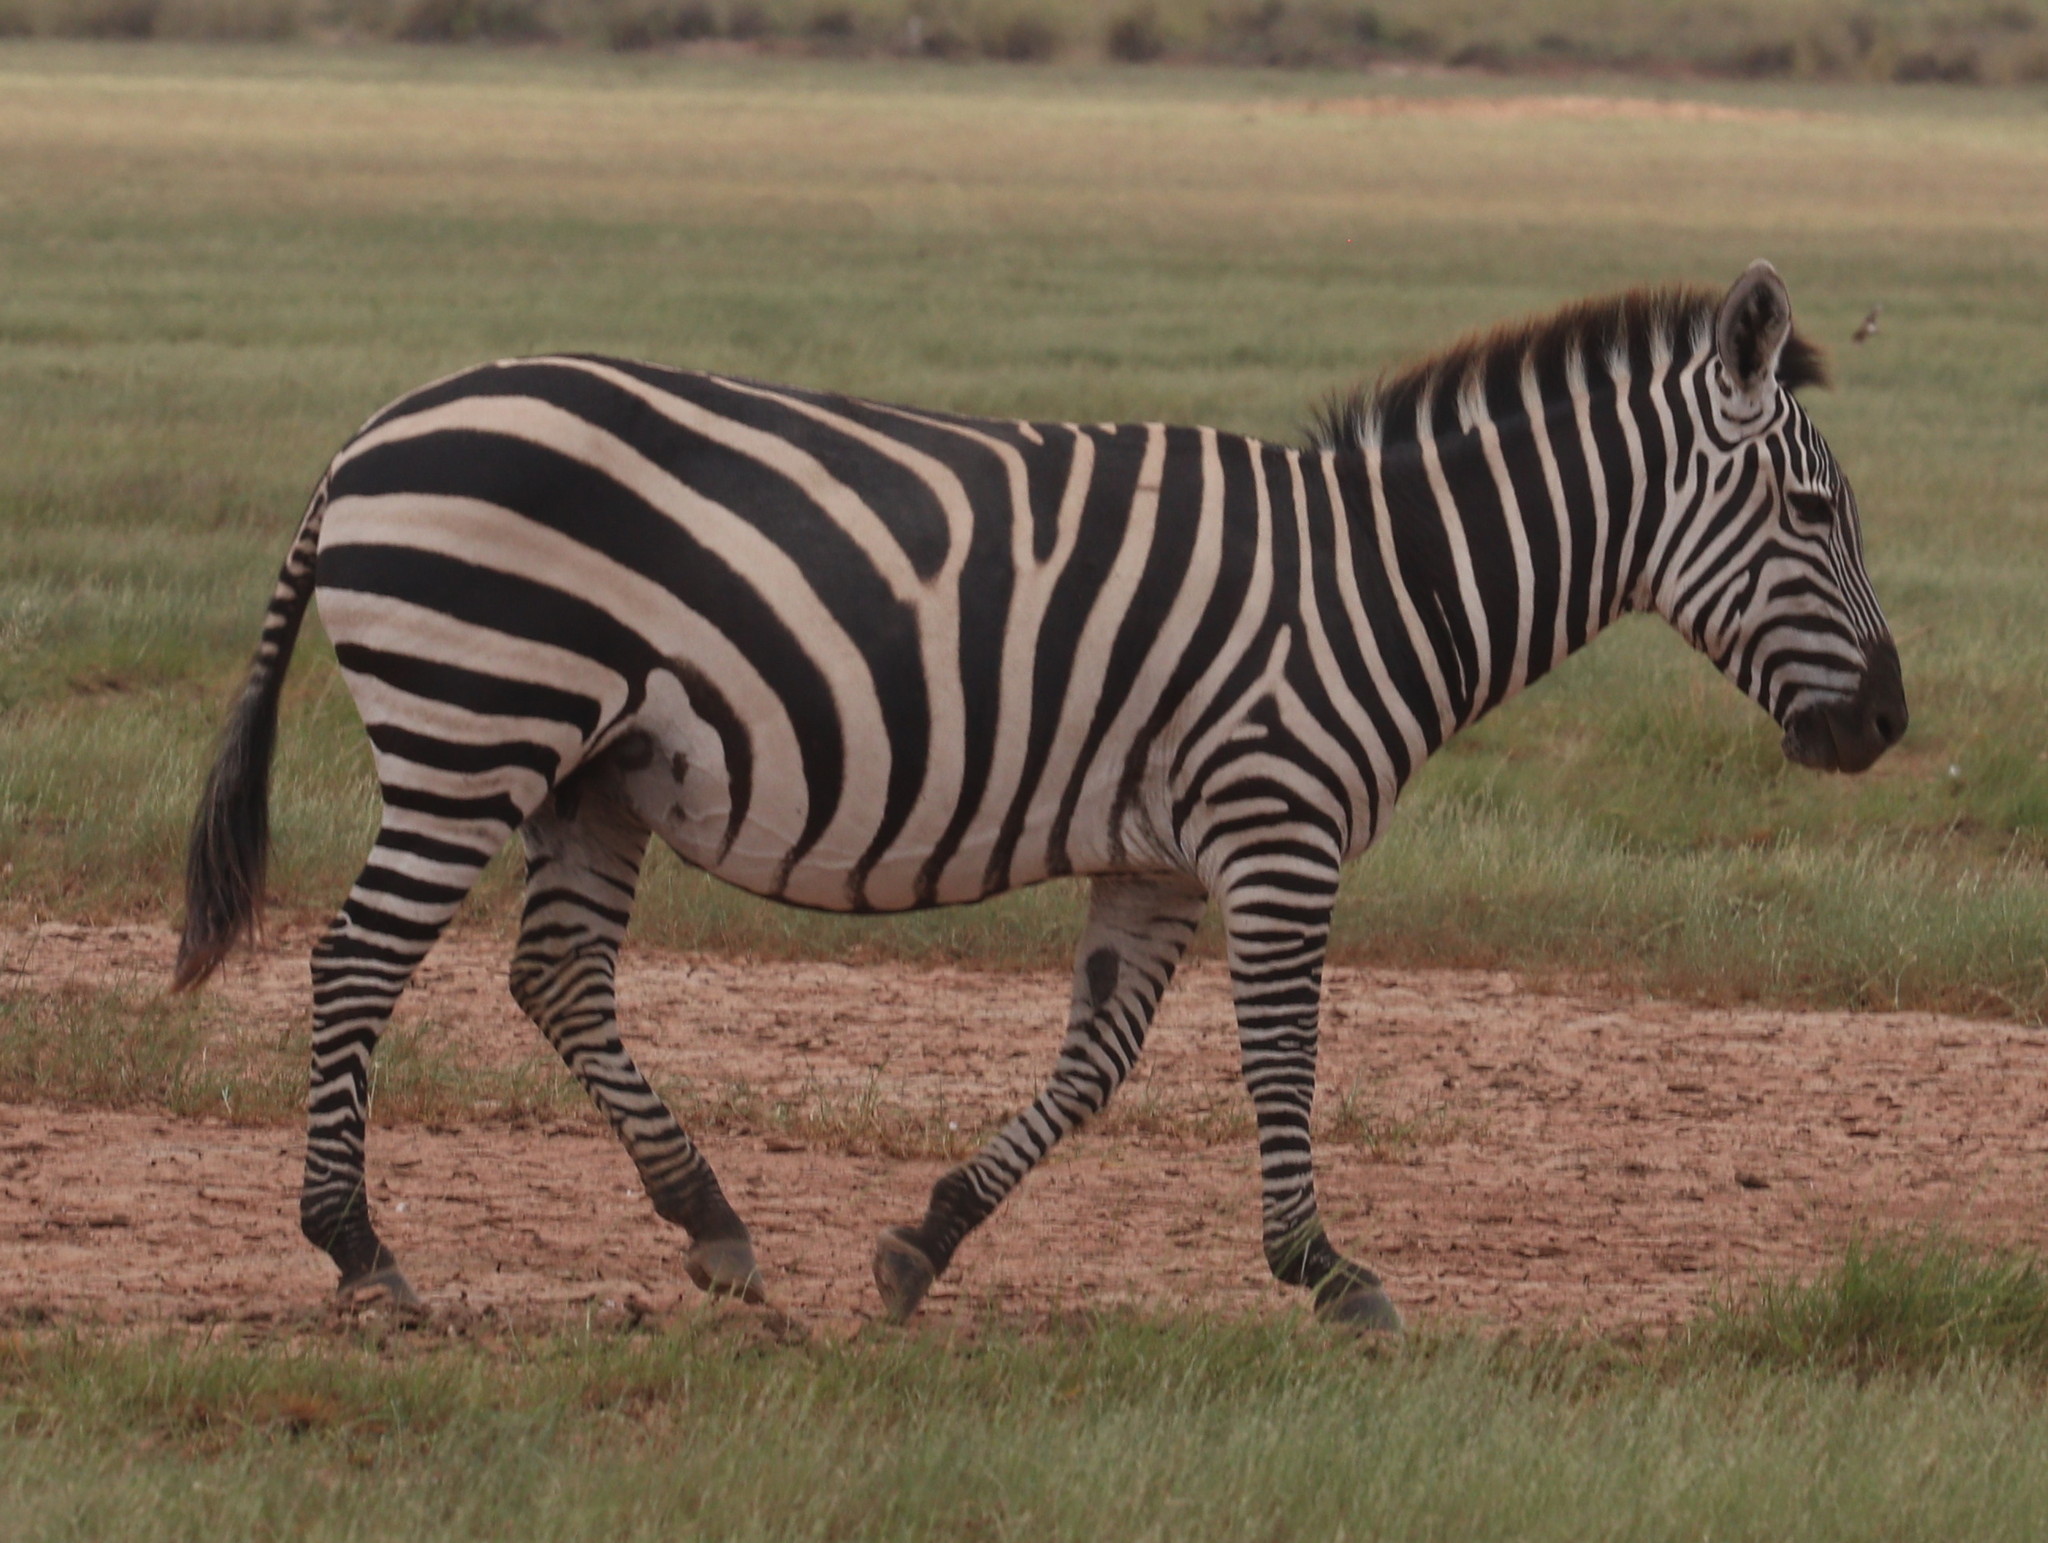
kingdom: Animalia
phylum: Chordata
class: Mammalia
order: Perissodactyla
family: Equidae
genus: Equus
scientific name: Equus quagga
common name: Plains zebra
